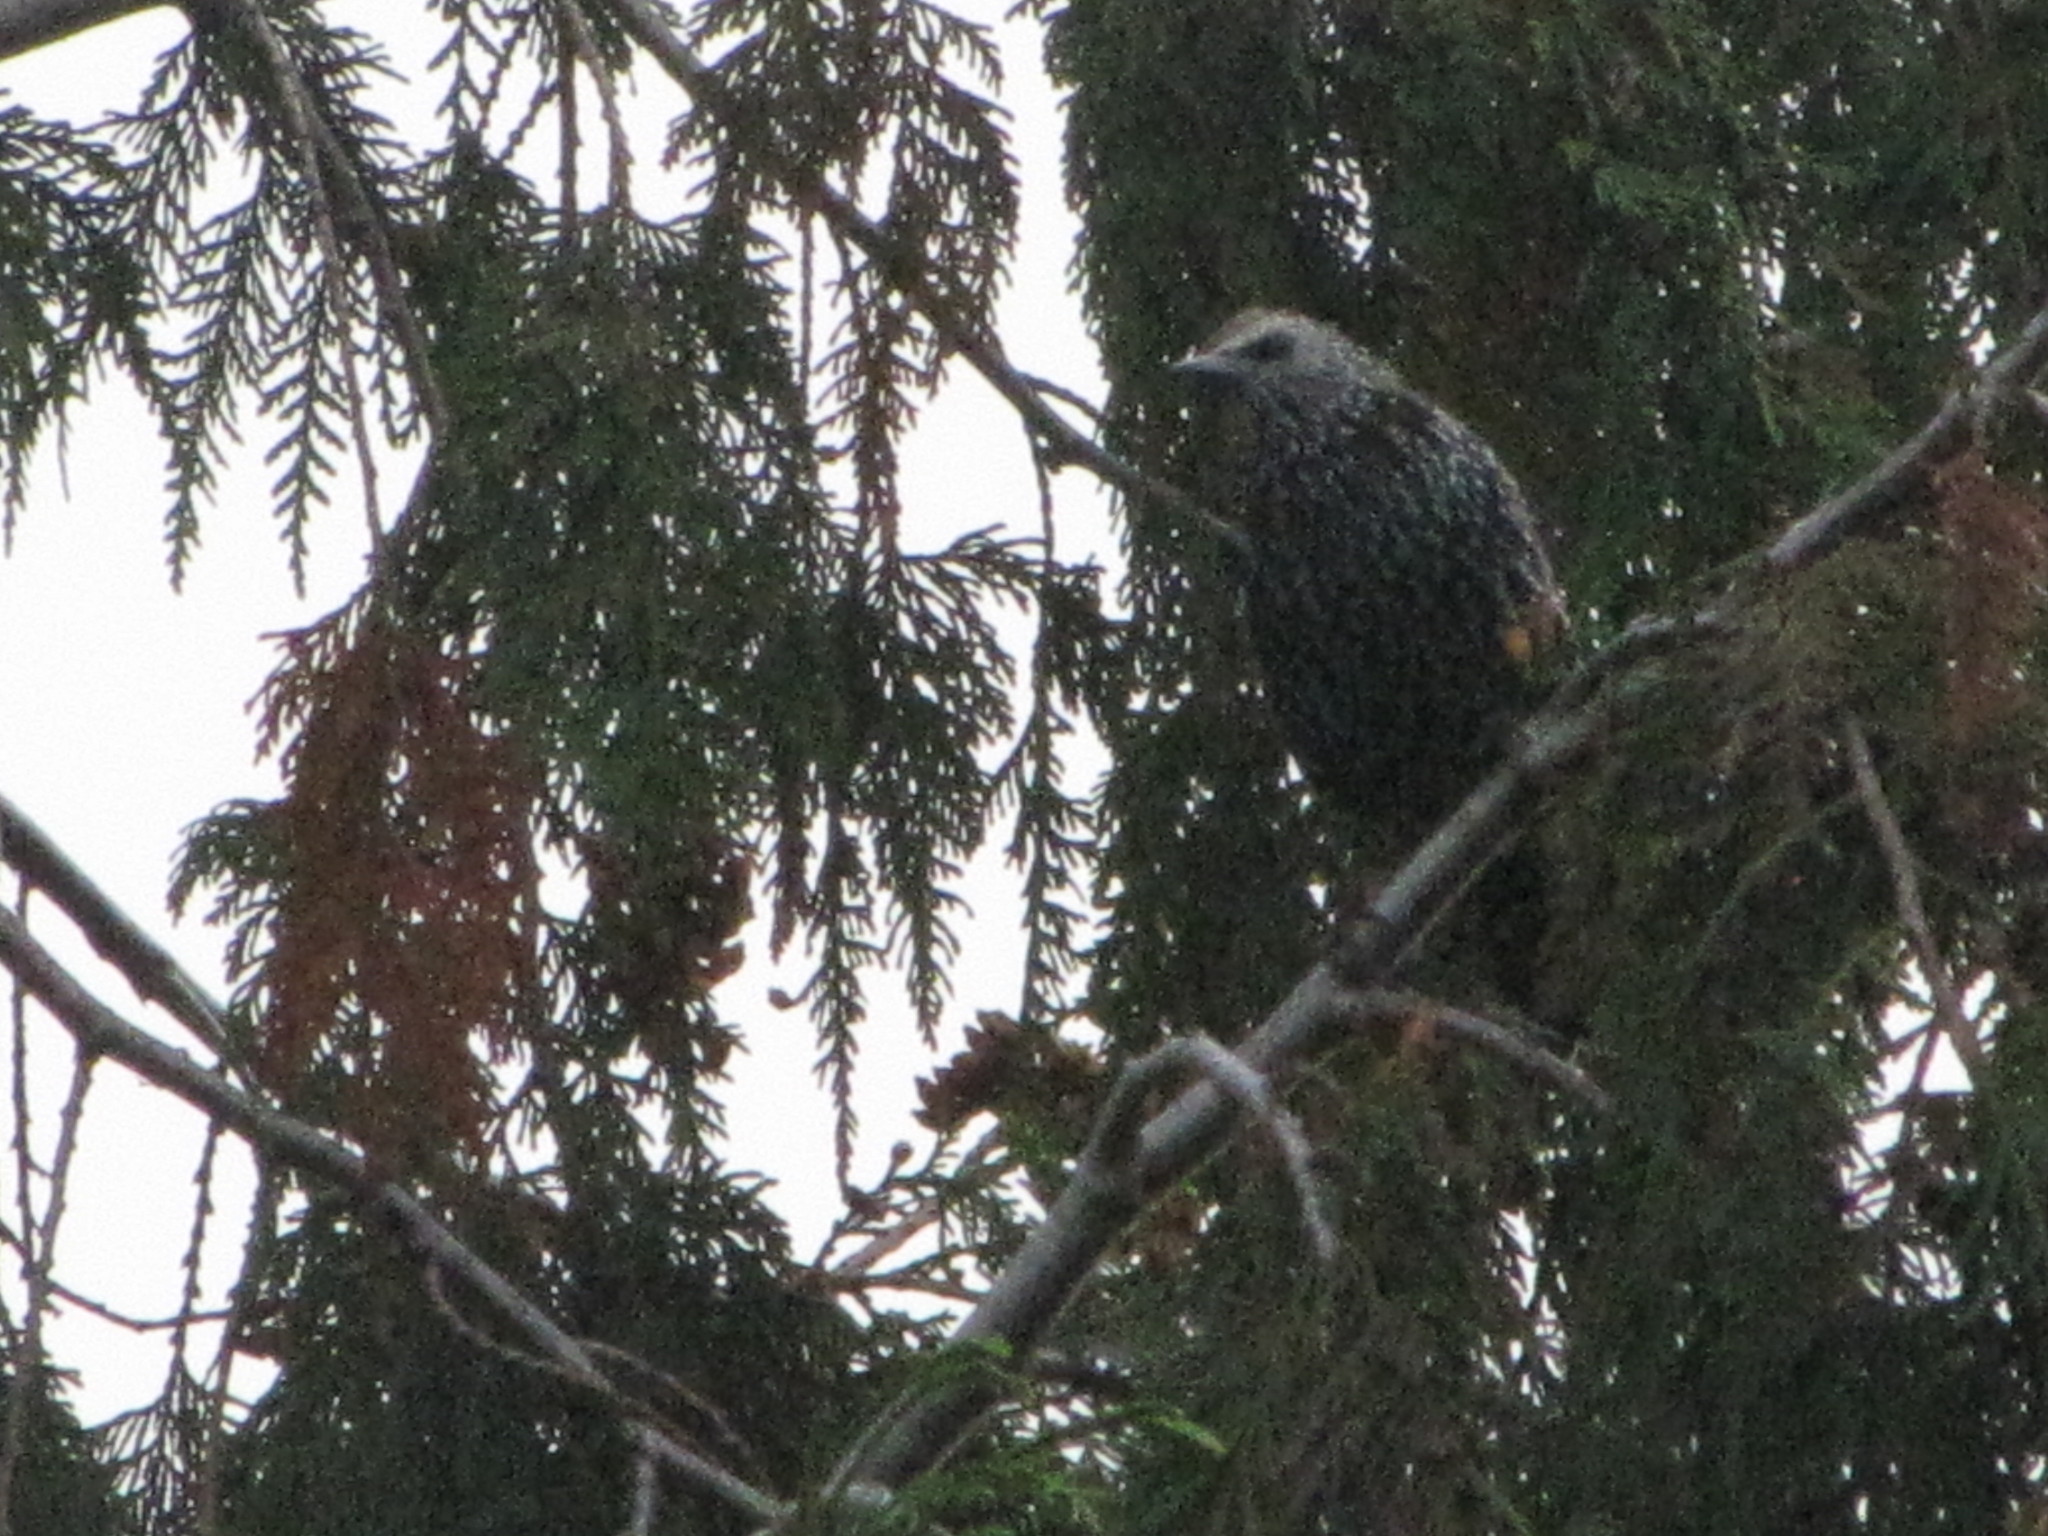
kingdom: Animalia
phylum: Chordata
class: Aves
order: Passeriformes
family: Sturnidae
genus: Sturnus
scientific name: Sturnus vulgaris
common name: Common starling
